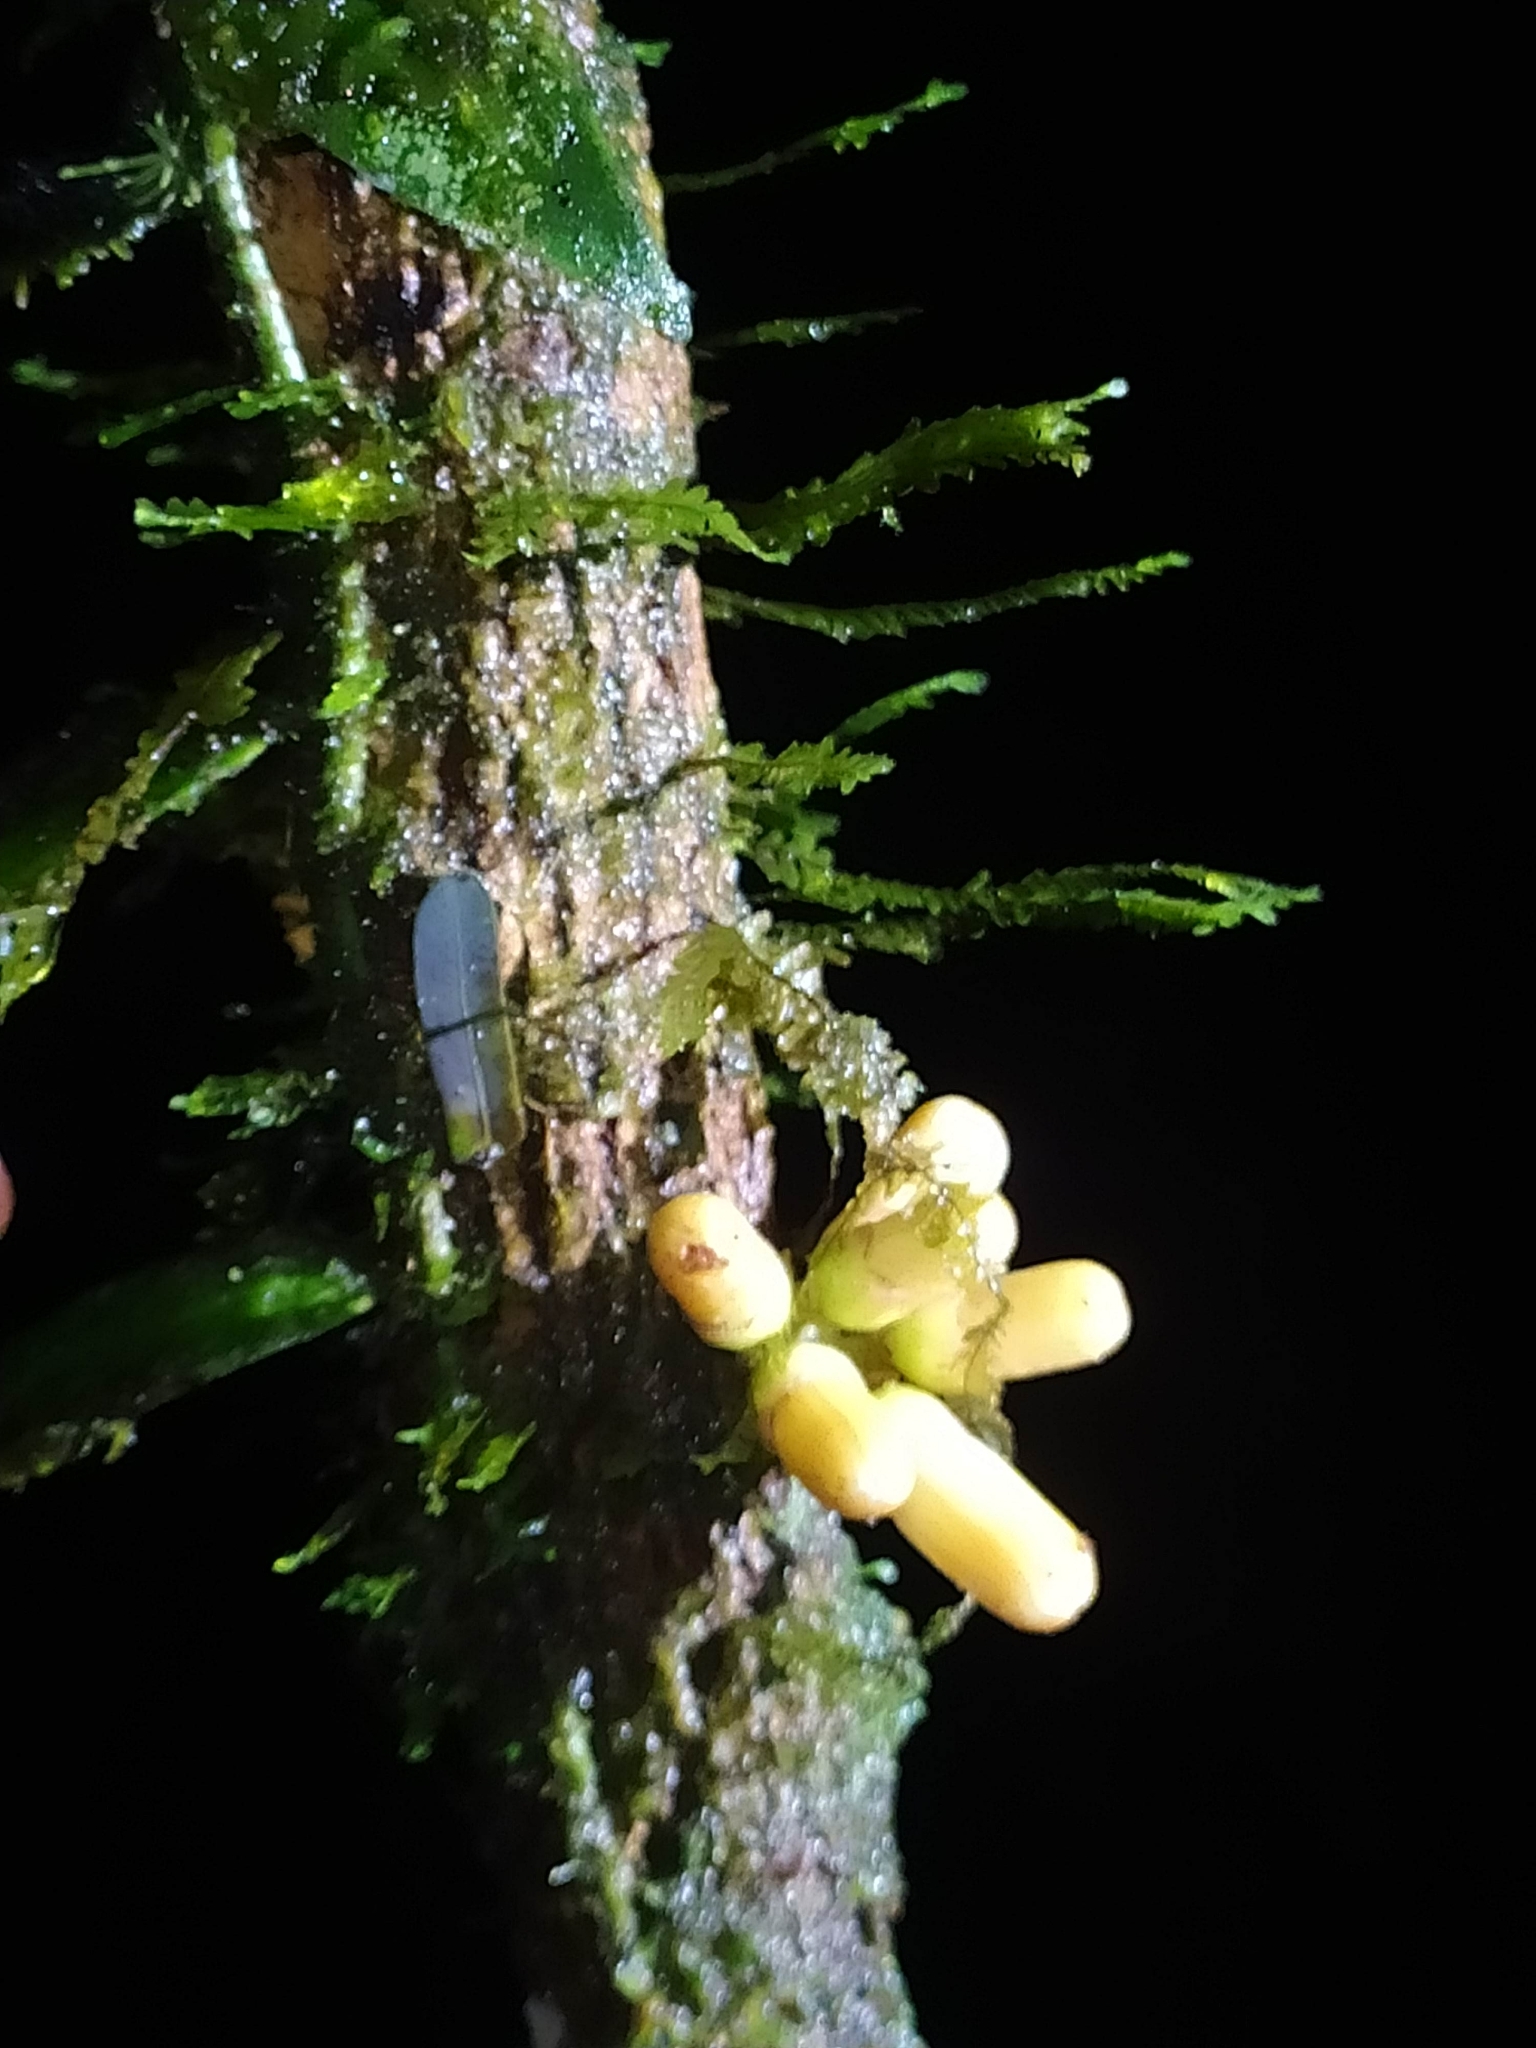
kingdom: Plantae
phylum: Tracheophyta
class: Magnoliopsida
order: Sapindales
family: Meliaceae
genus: Guarea
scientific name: Guarea
